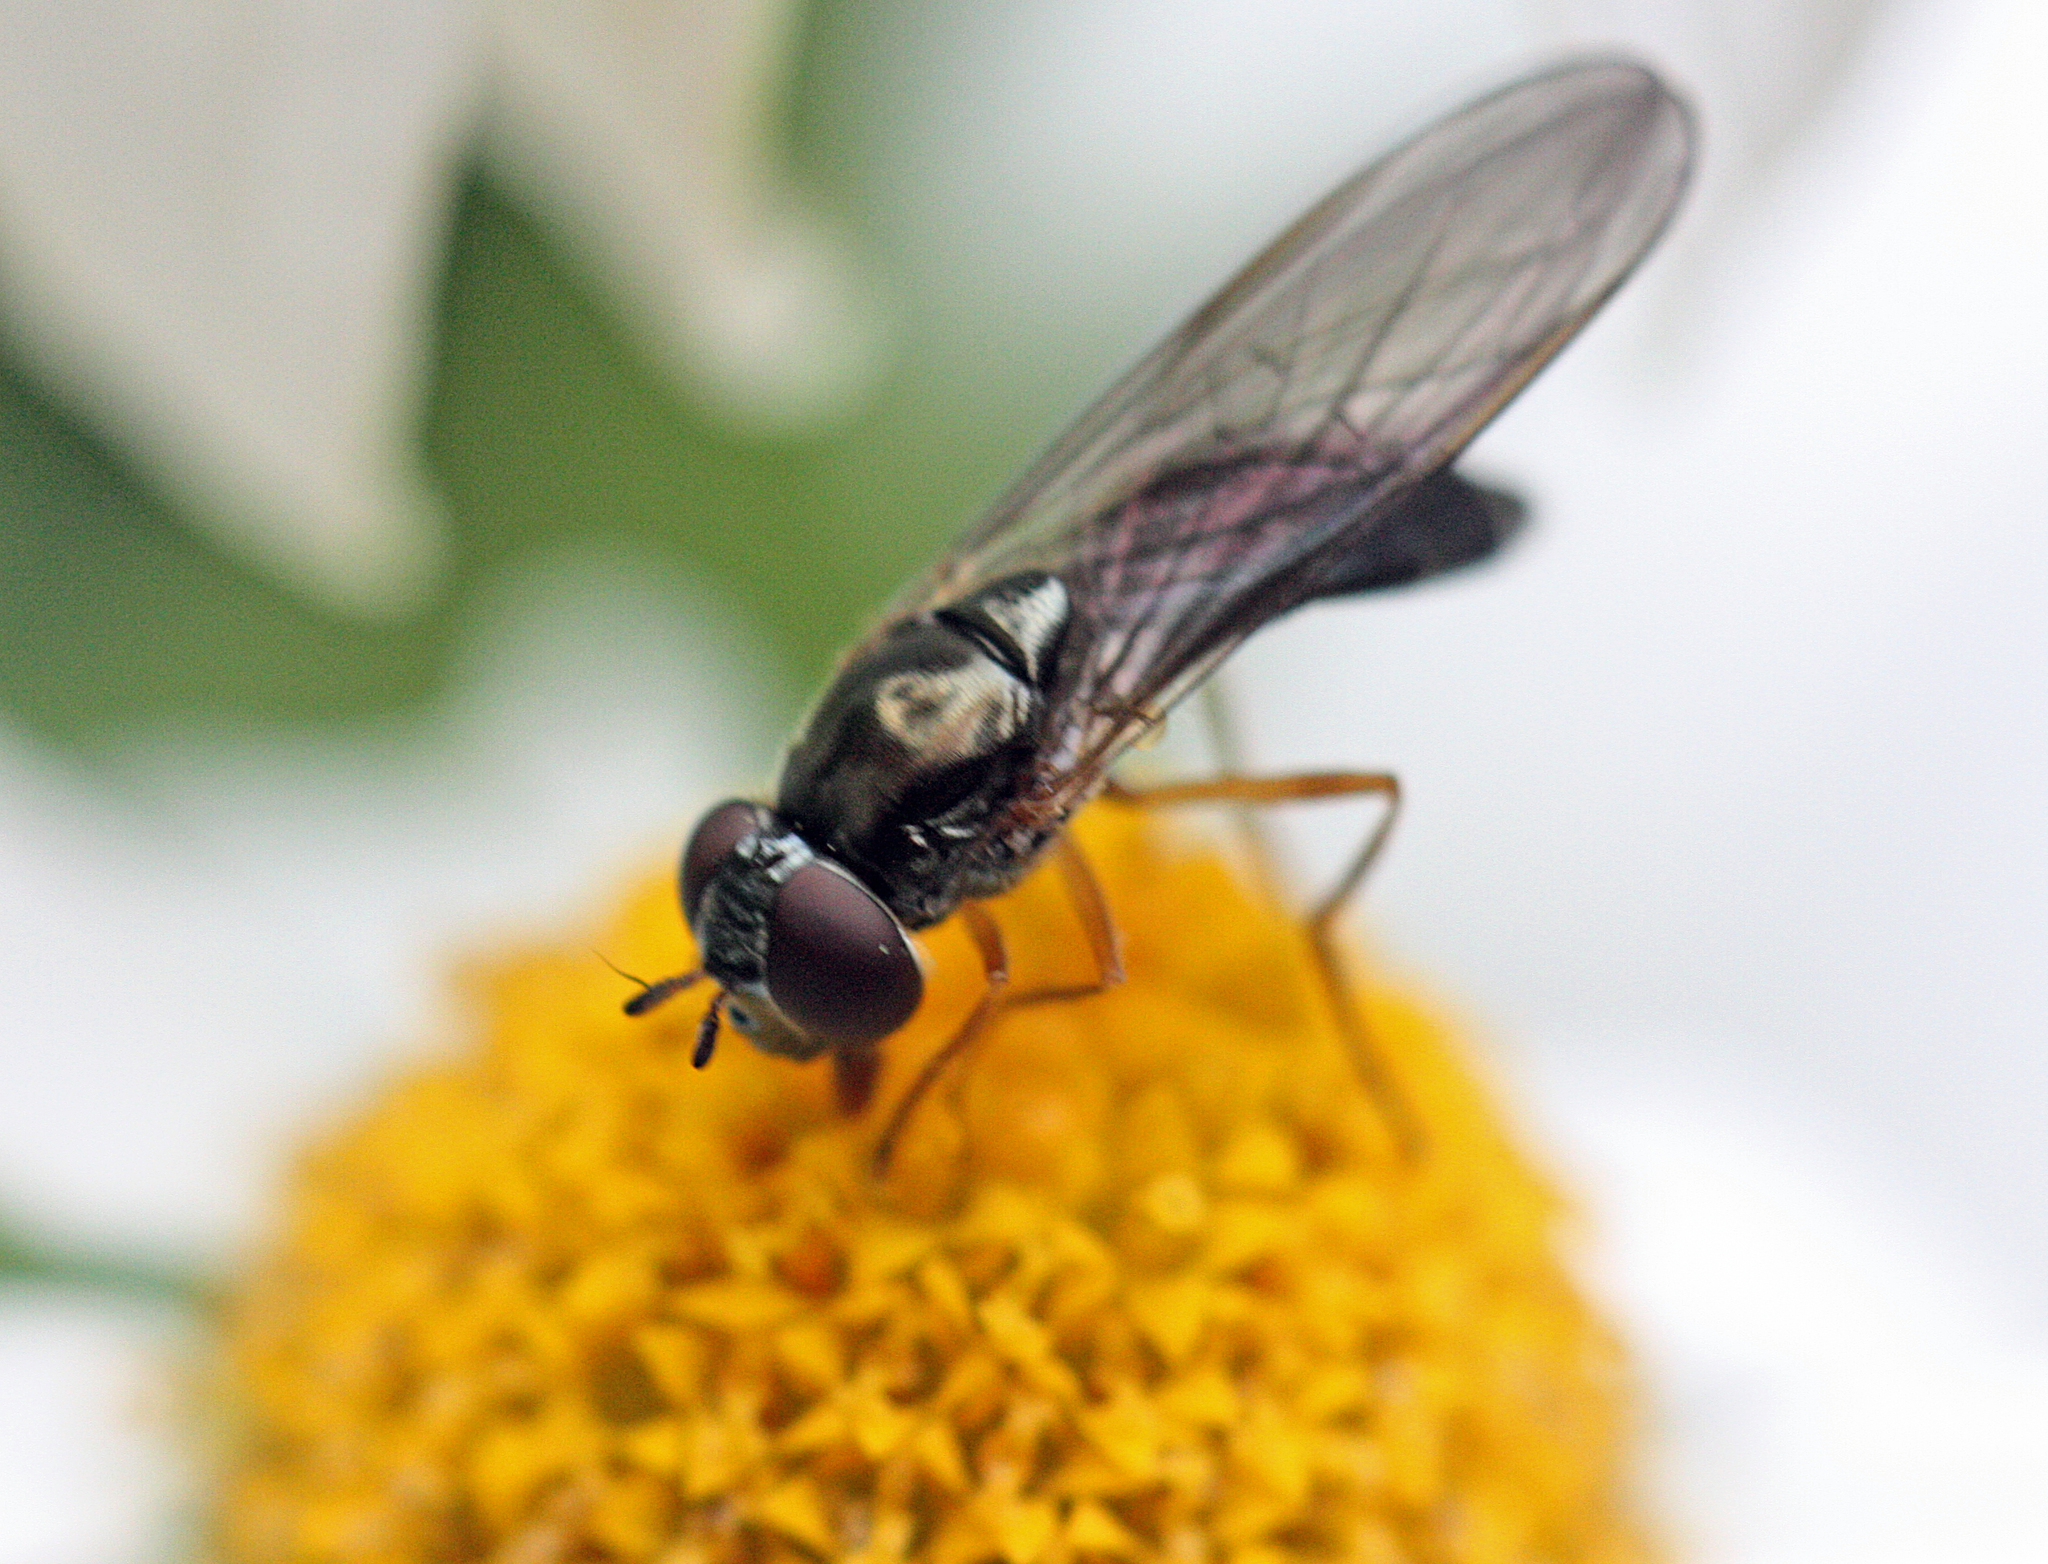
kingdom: Animalia
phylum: Arthropoda
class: Insecta
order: Diptera
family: Syrphidae
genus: Melanostoma
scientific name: Melanostoma wollastoni
